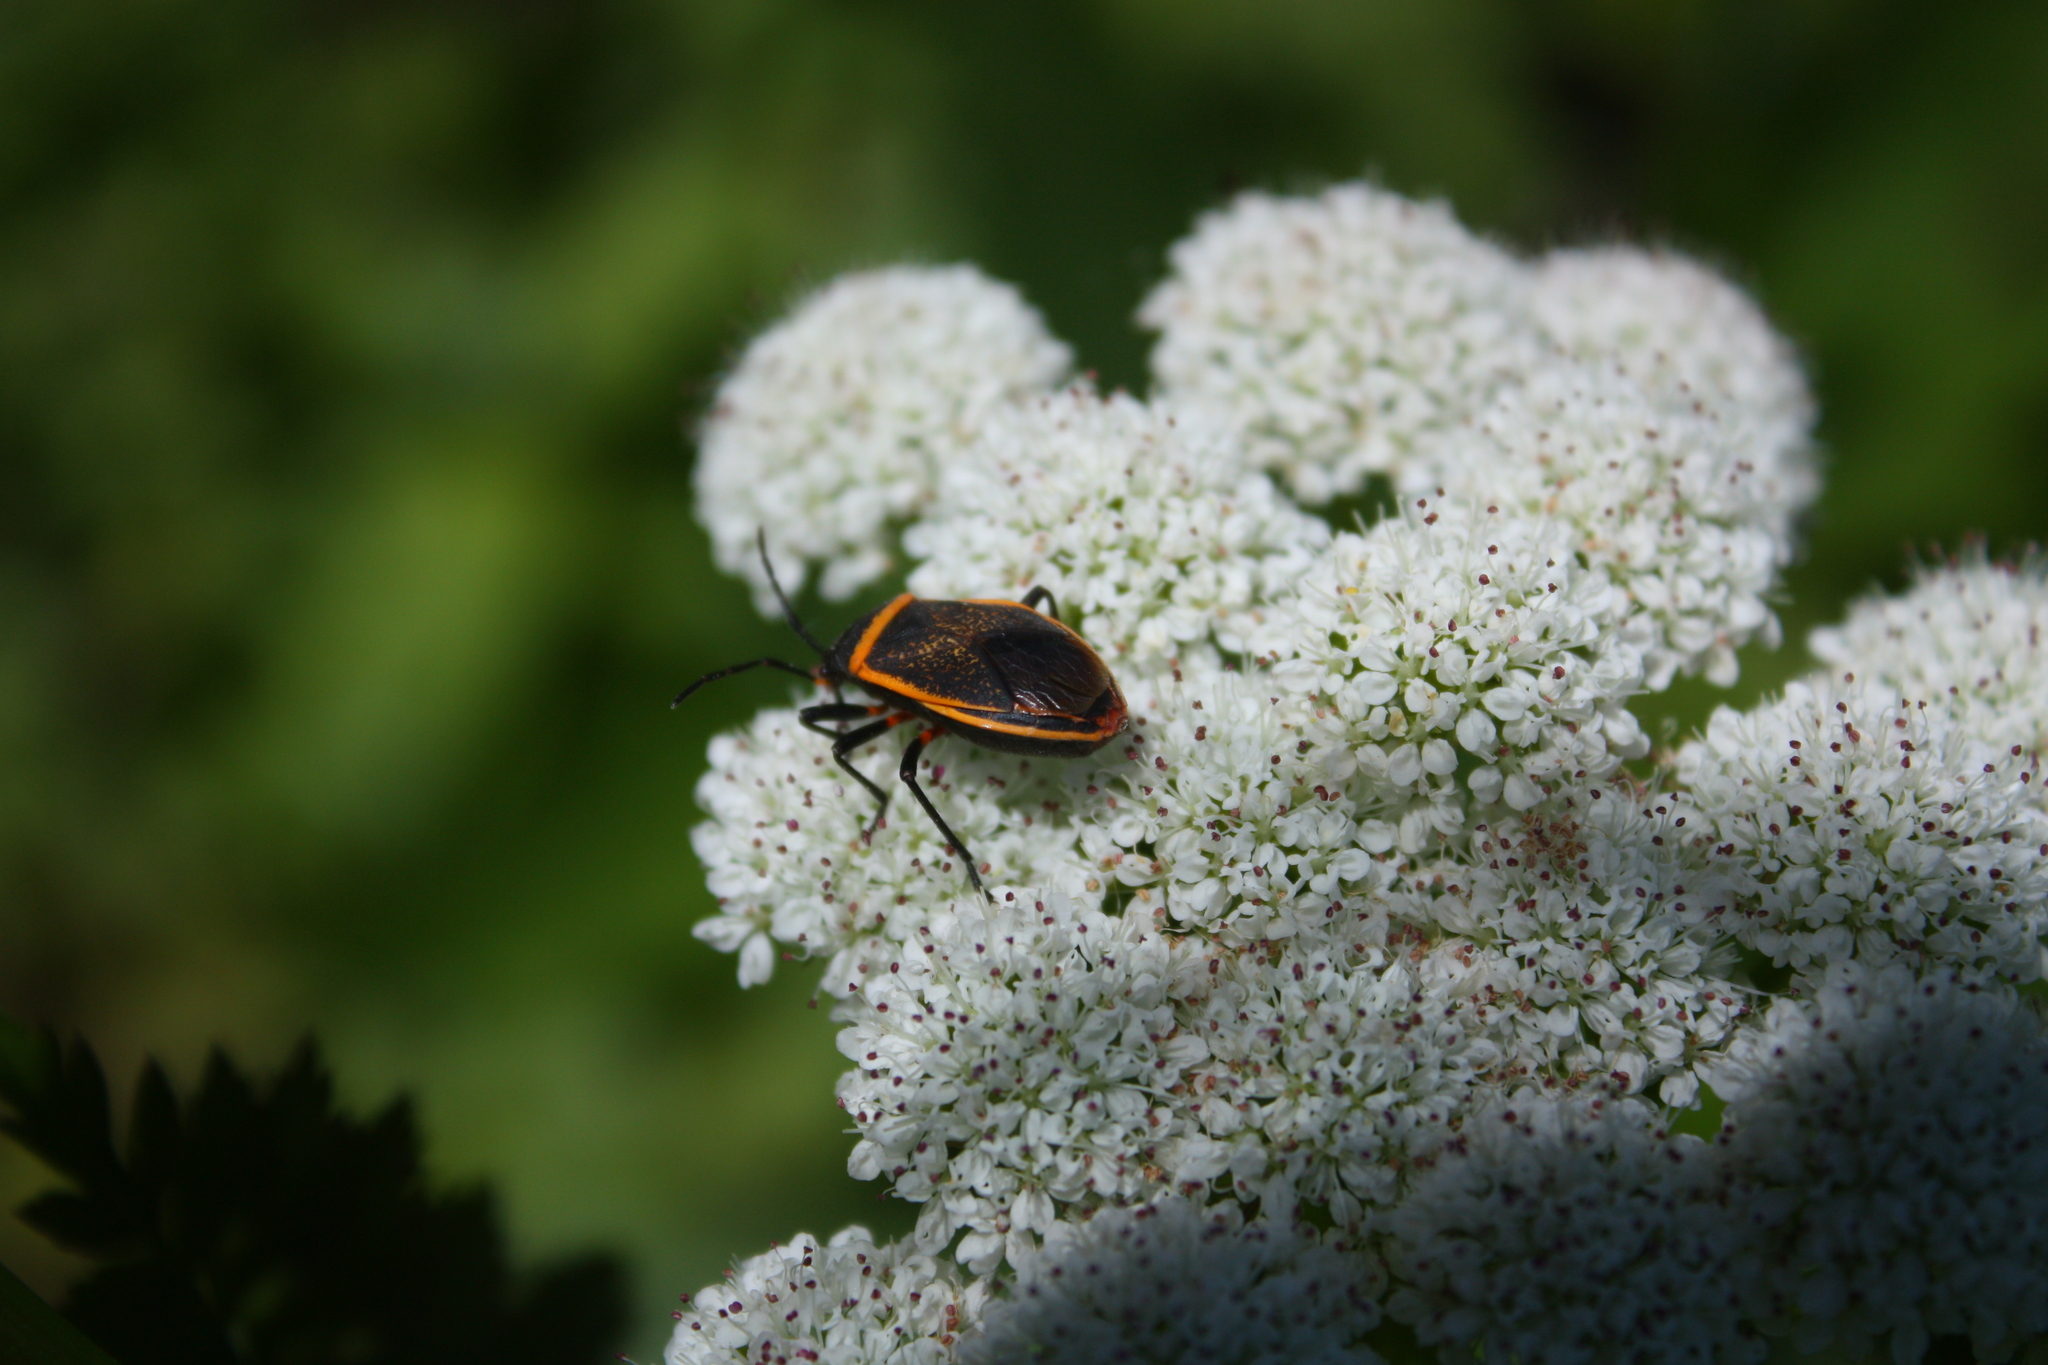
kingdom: Animalia
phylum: Arthropoda
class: Insecta
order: Hemiptera
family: Largidae
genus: Largus
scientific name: Largus californicus
